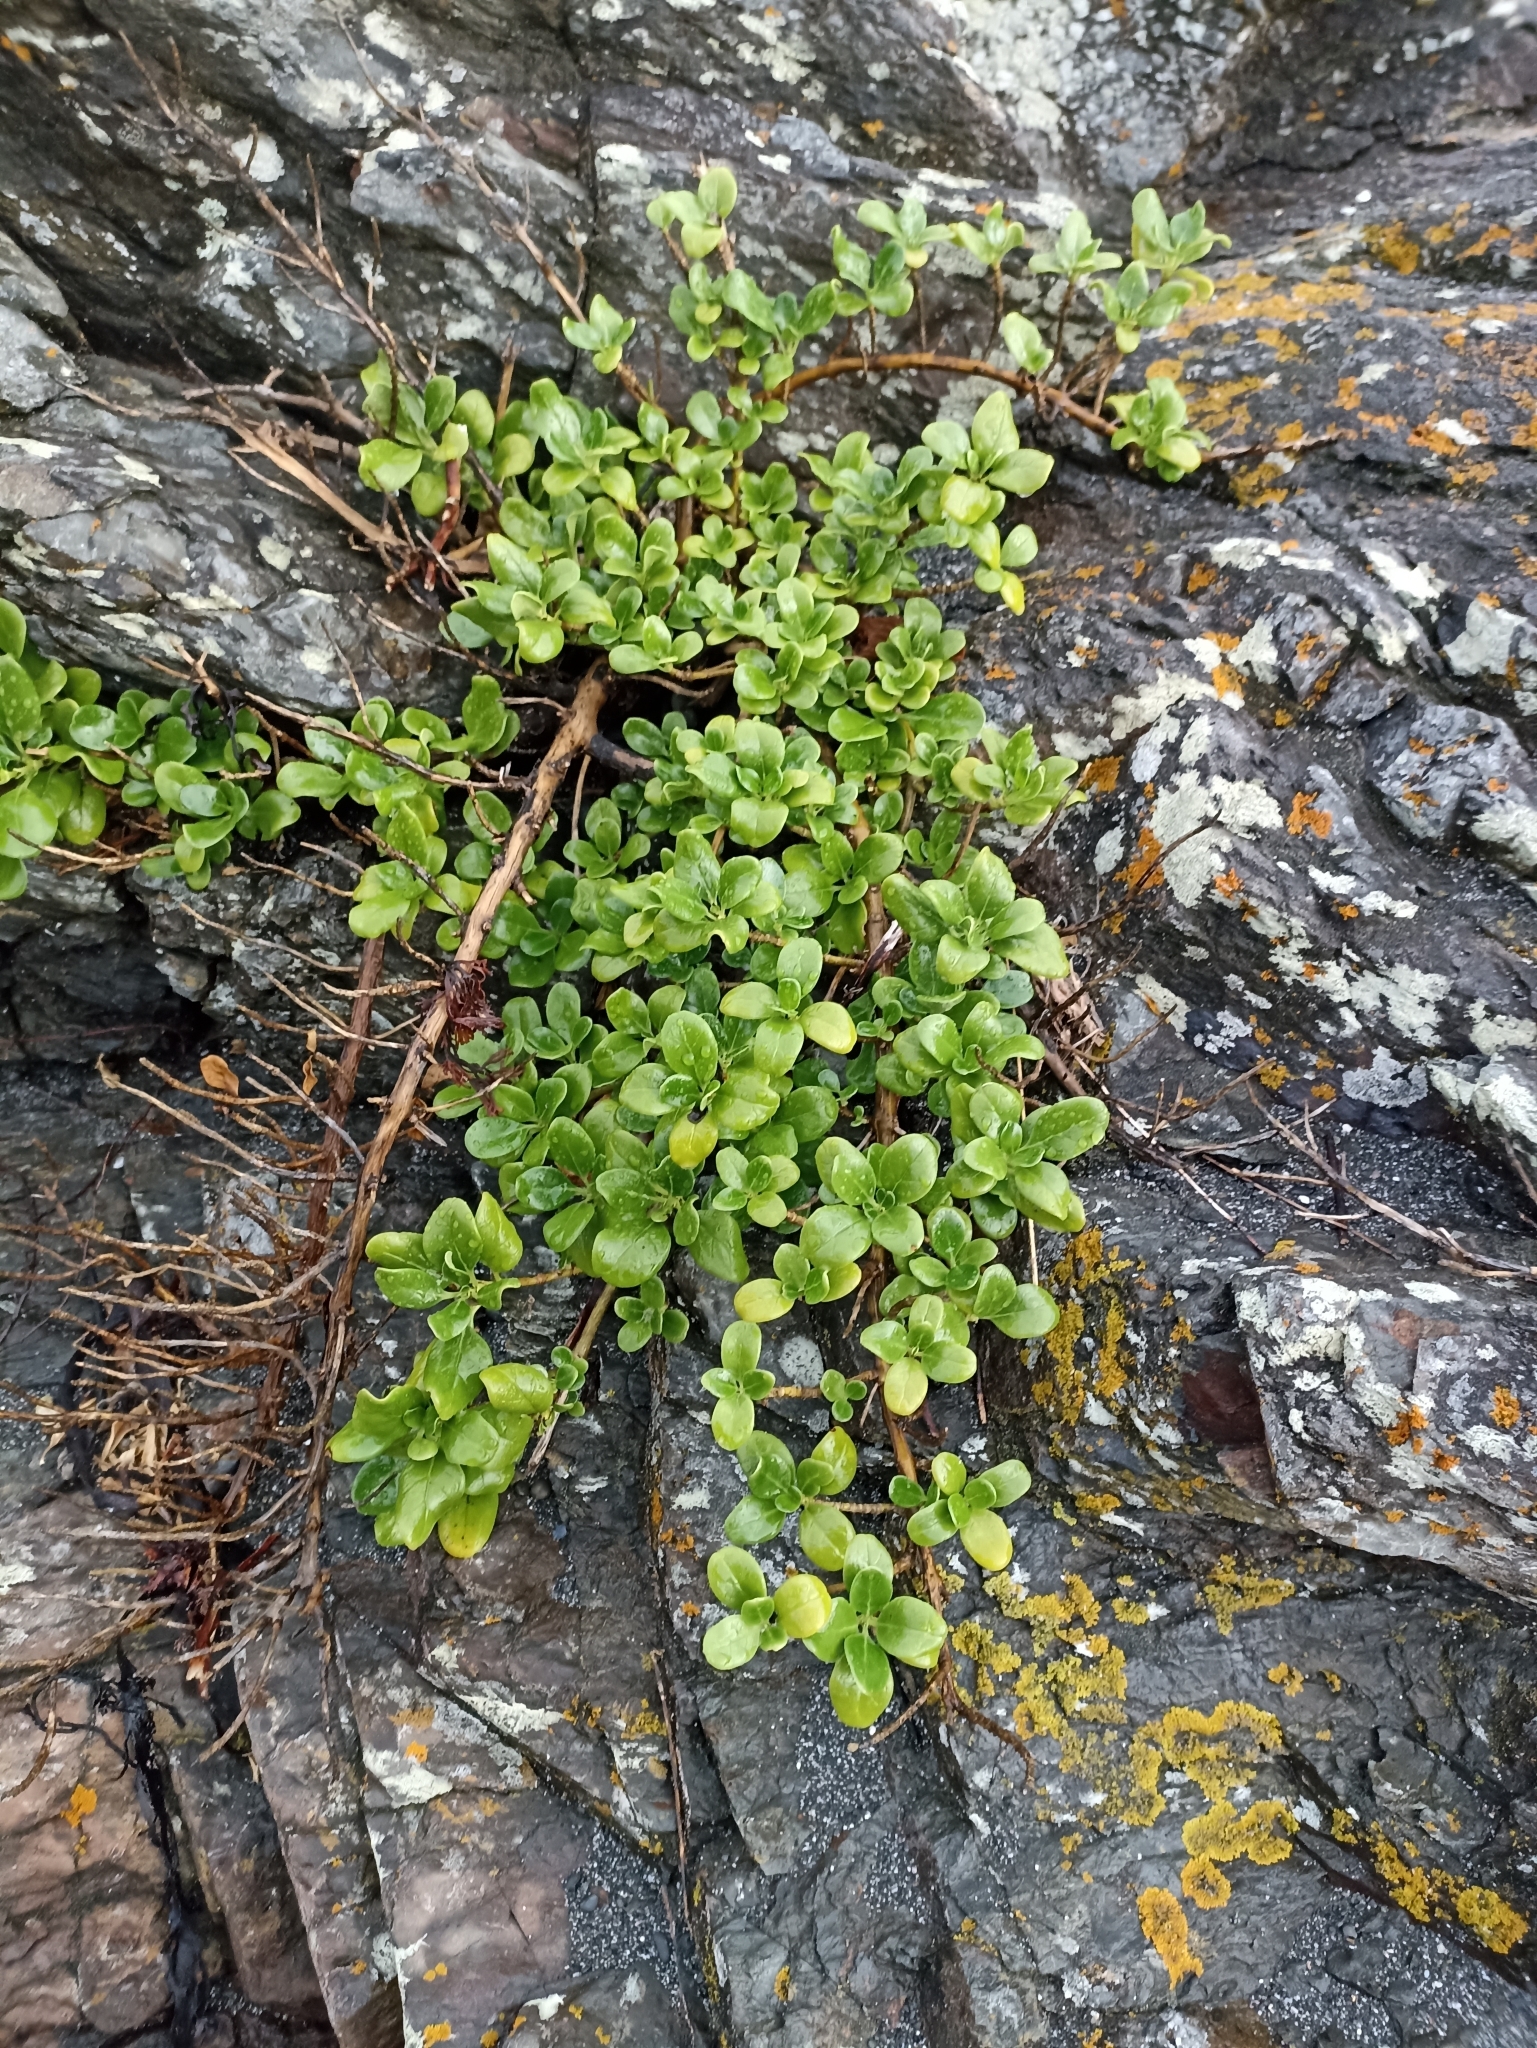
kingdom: Plantae
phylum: Tracheophyta
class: Magnoliopsida
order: Gentianales
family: Rubiaceae
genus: Coprosma
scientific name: Coprosma repens
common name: Tree bedstraw
